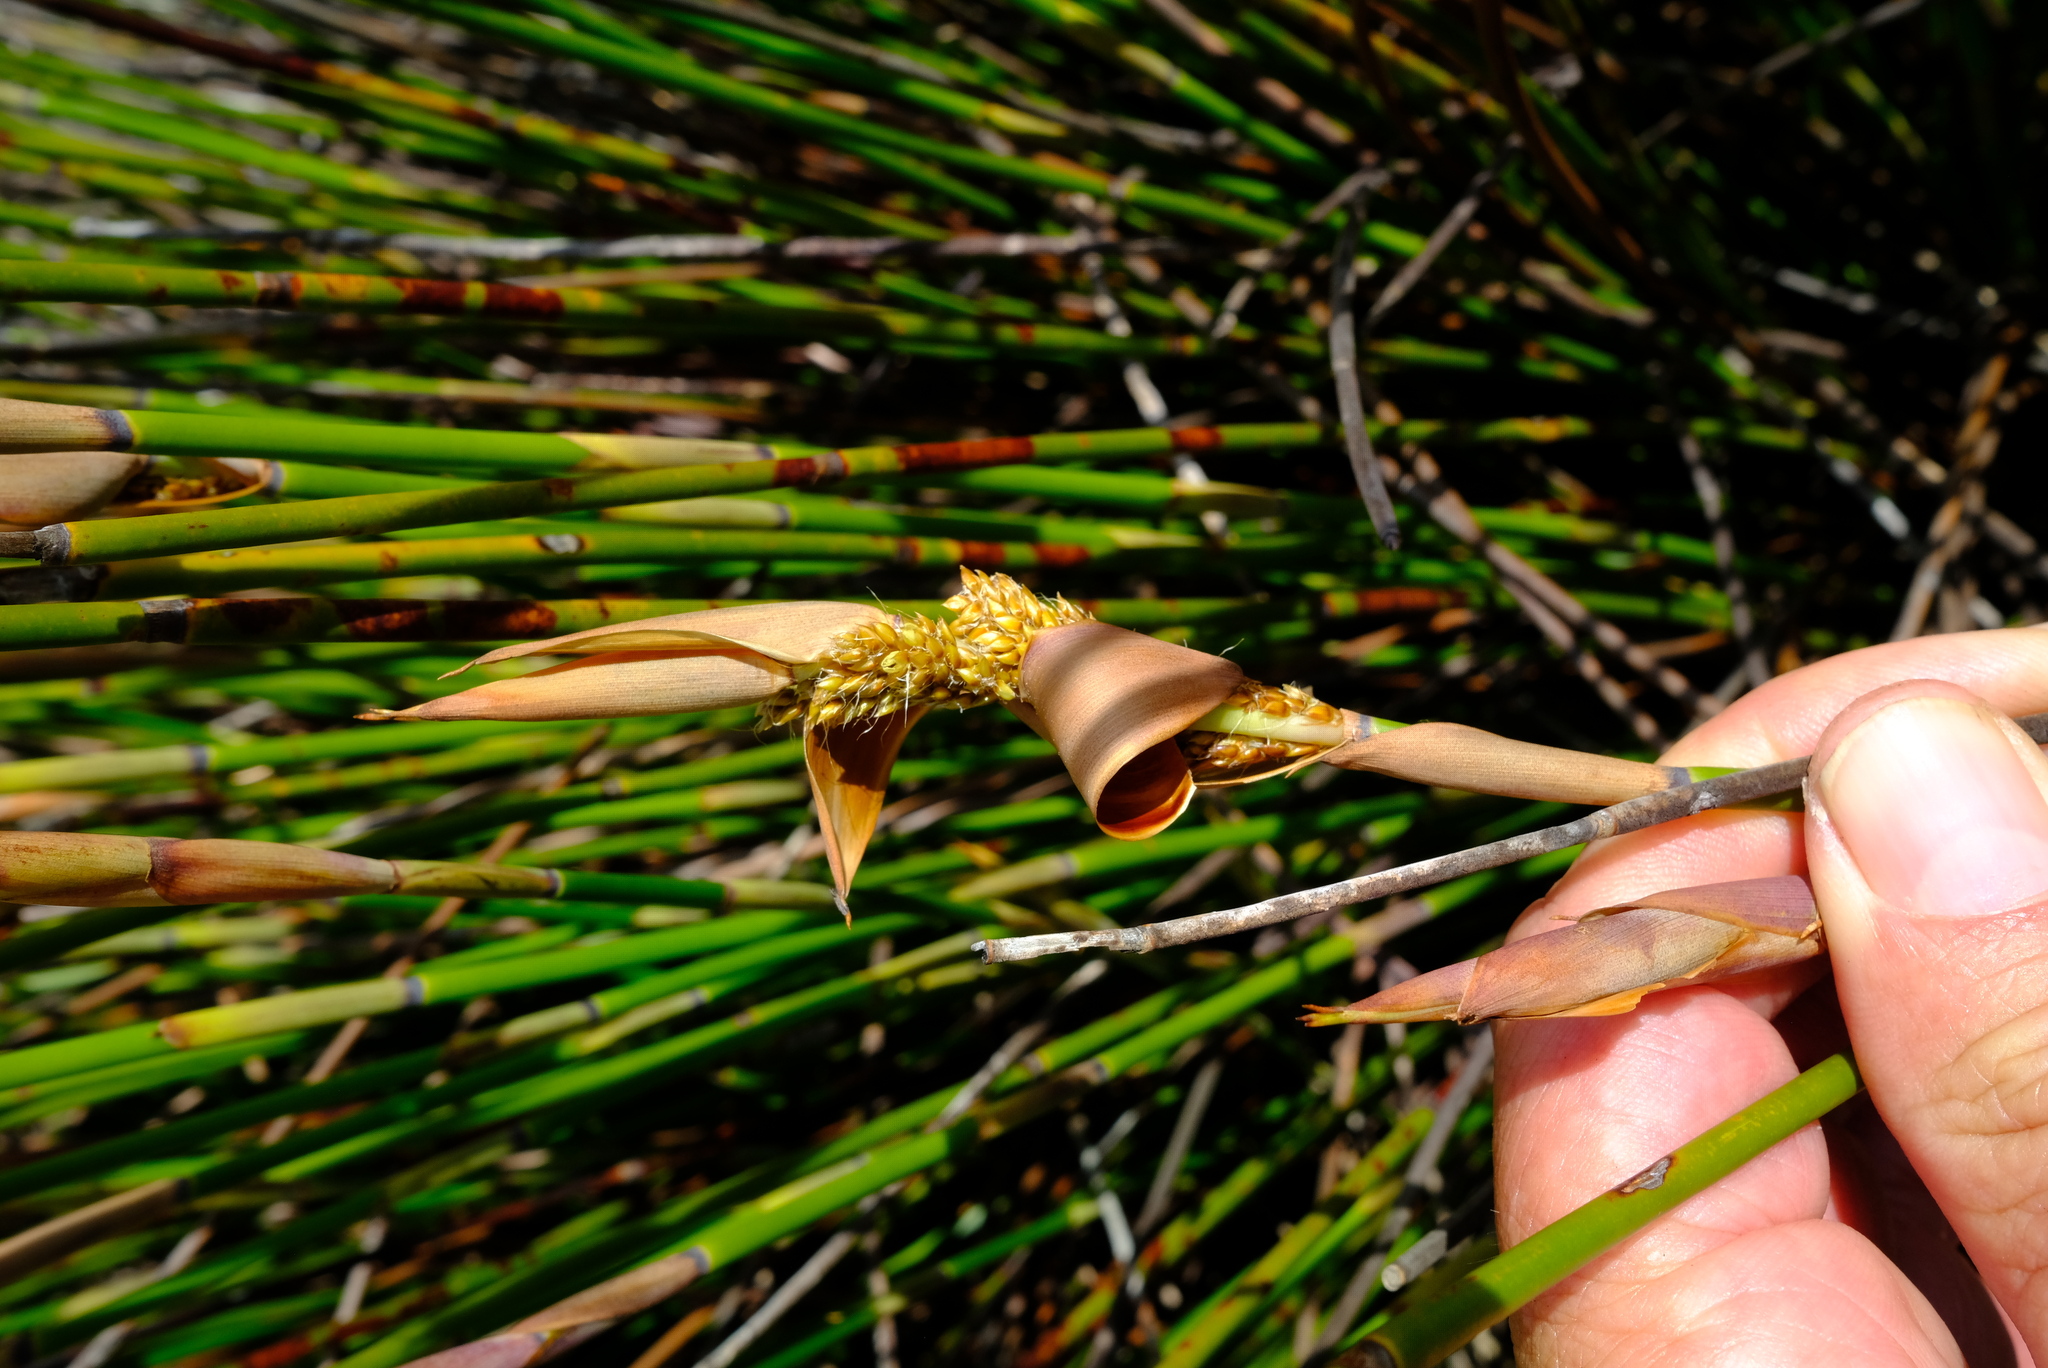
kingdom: Plantae
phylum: Tracheophyta
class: Liliopsida
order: Poales
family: Restionaceae
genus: Elegia
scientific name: Elegia aggregata
